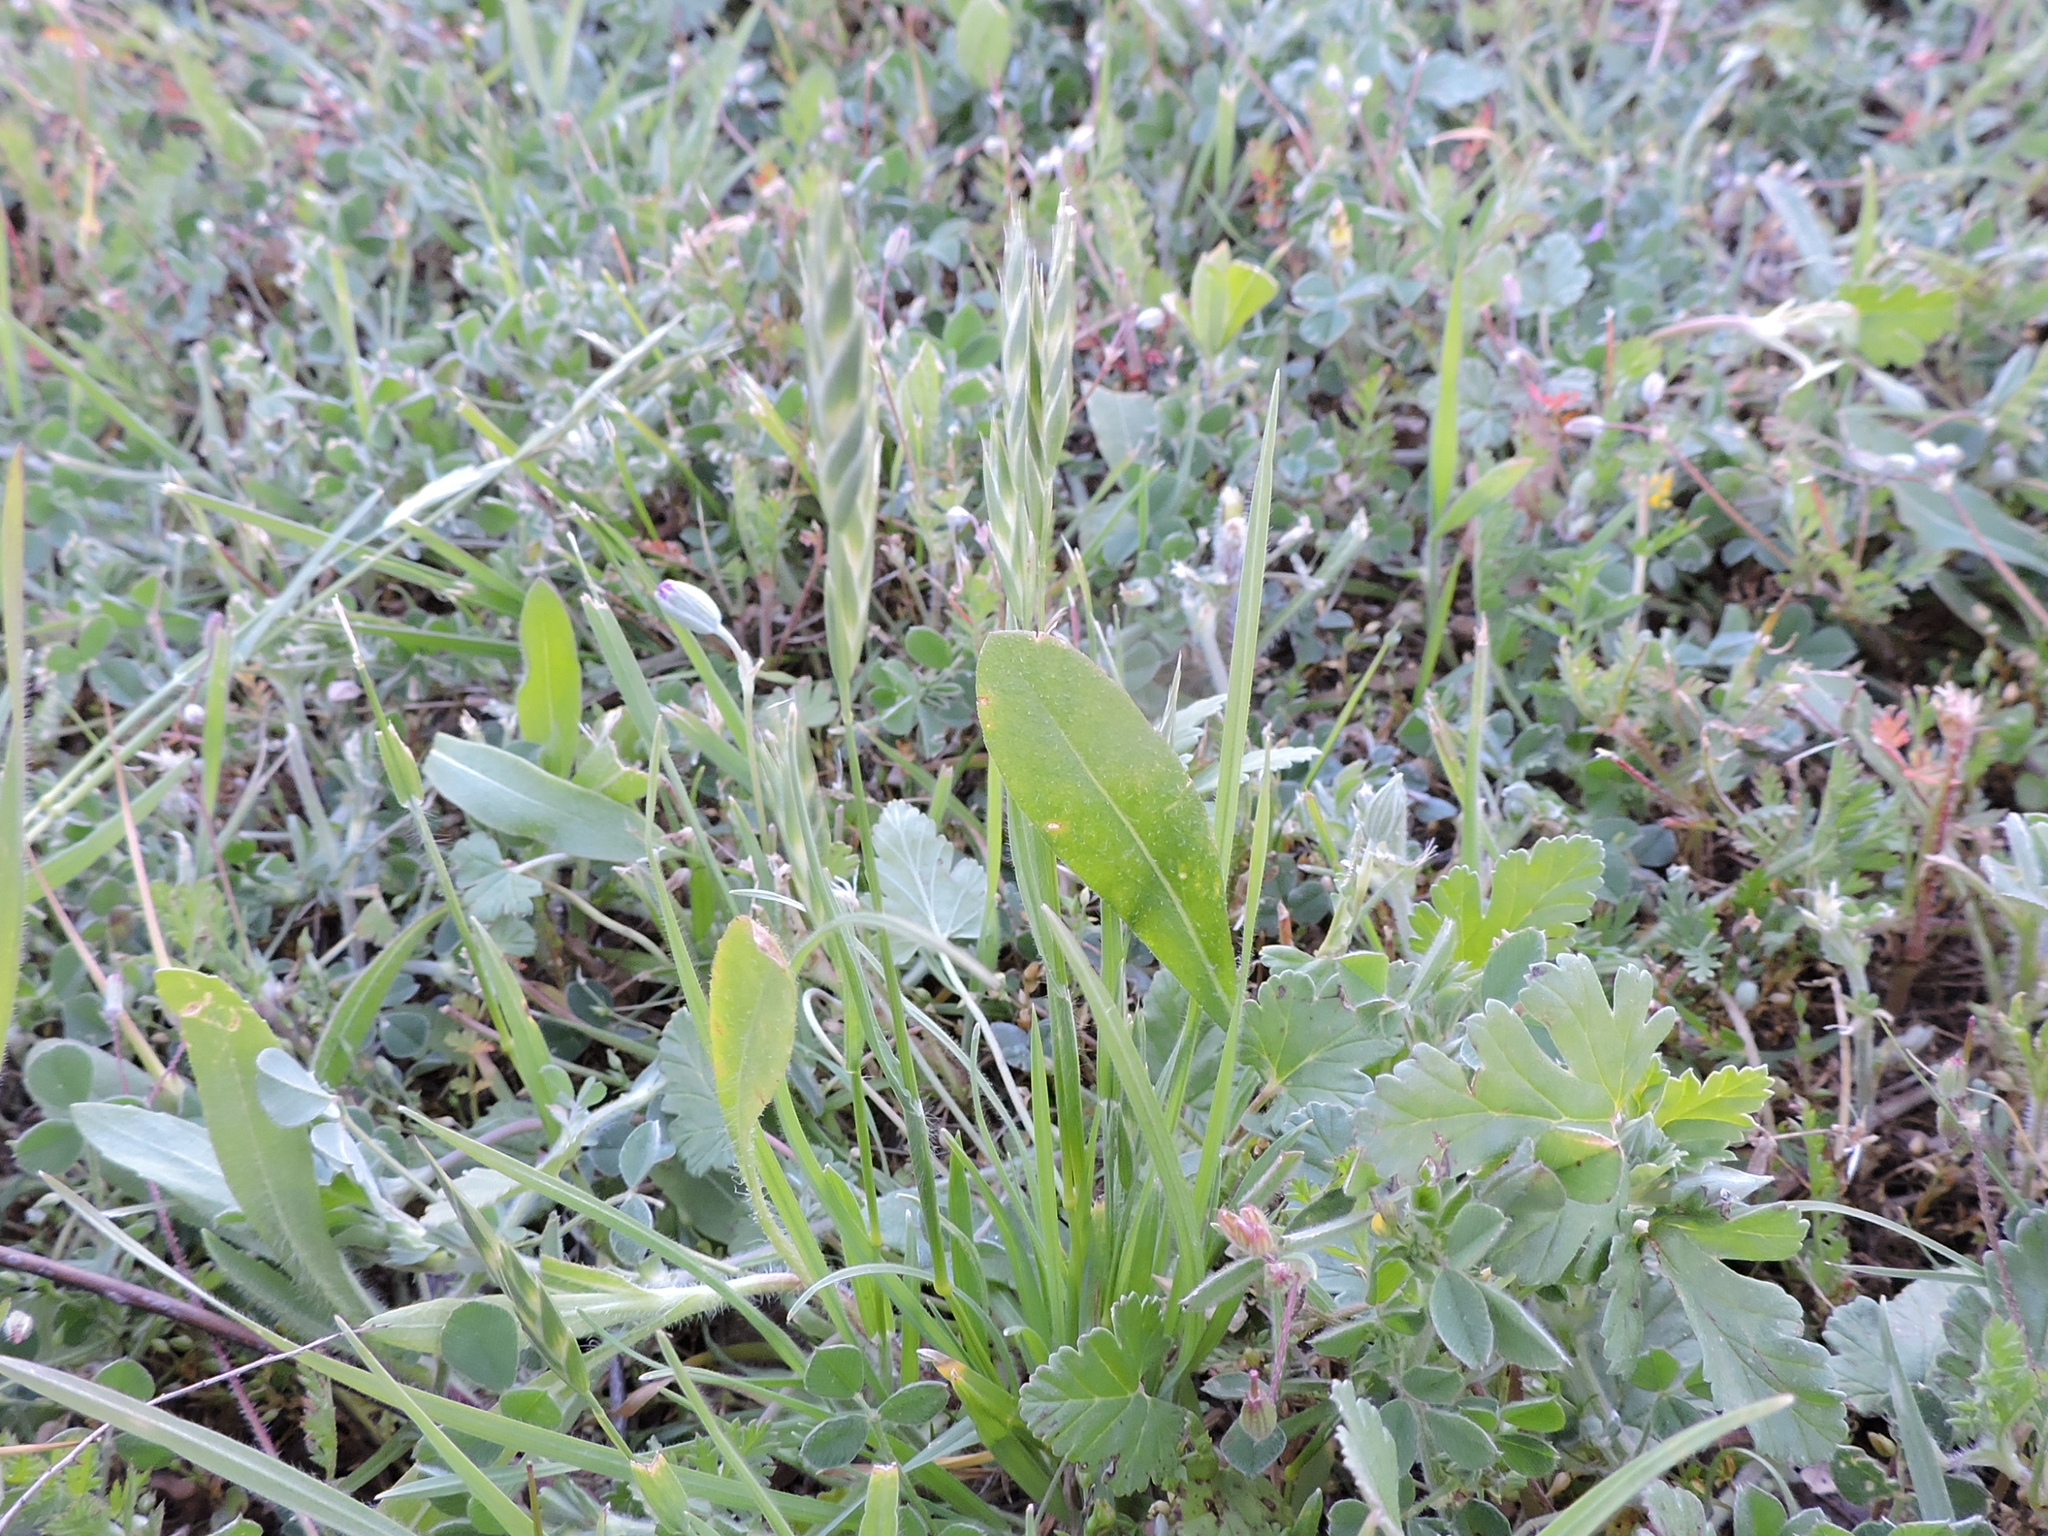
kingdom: Plantae
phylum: Tracheophyta
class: Liliopsida
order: Poales
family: Poaceae
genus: Bromus
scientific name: Bromus catharticus
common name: Rescuegrass
